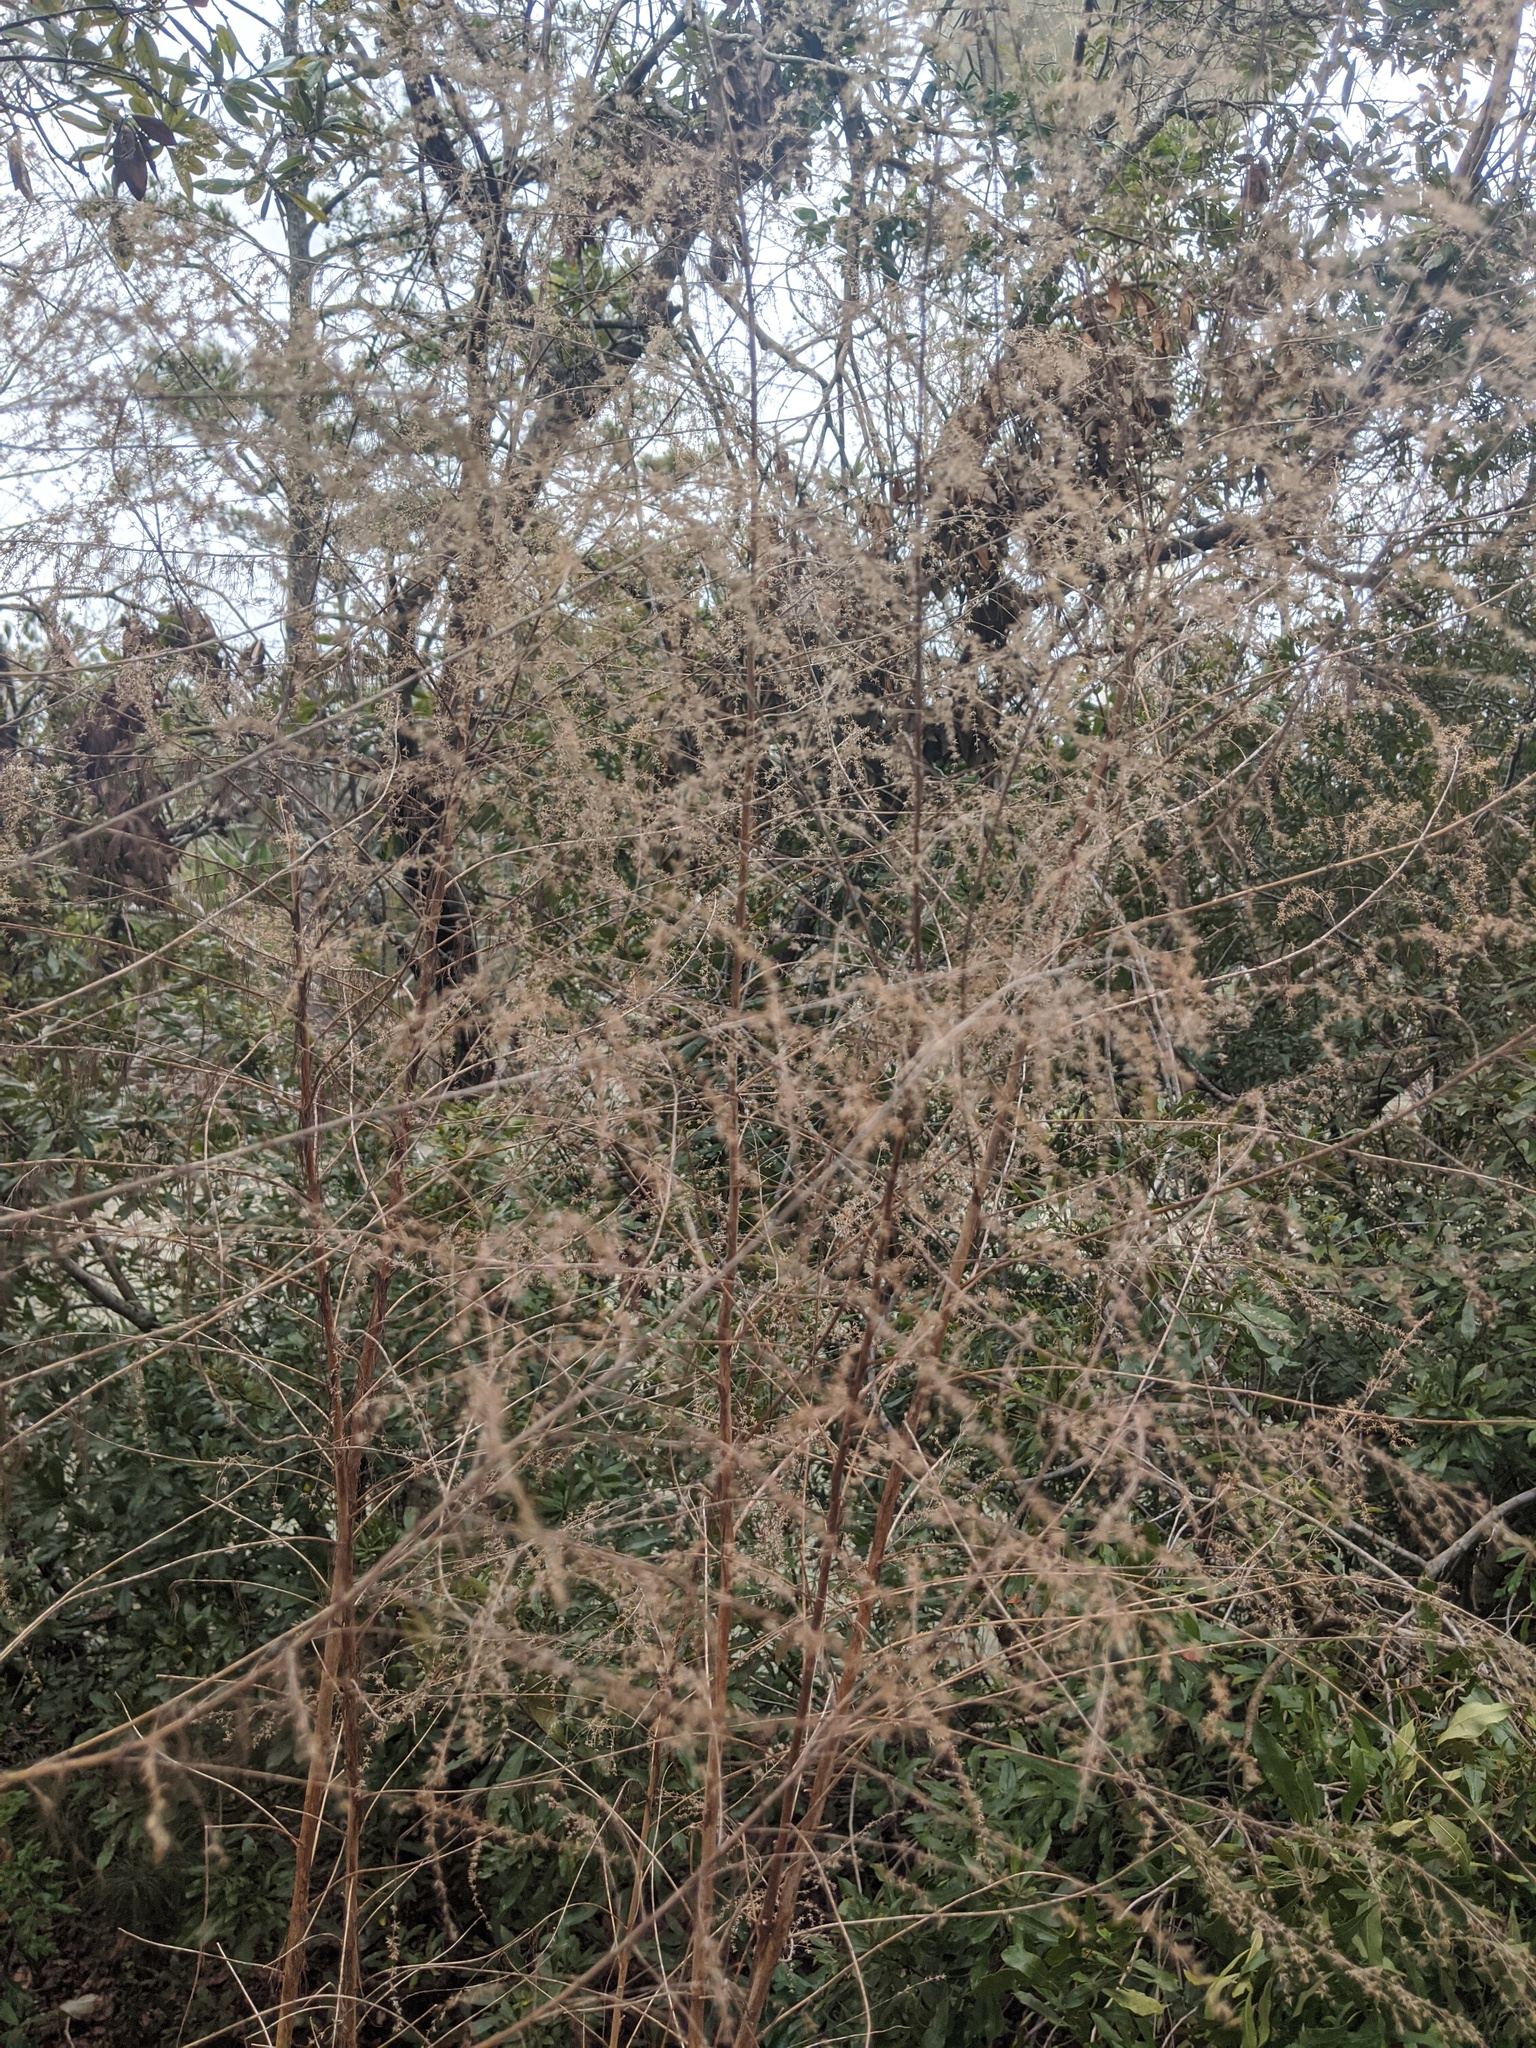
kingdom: Plantae
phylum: Tracheophyta
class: Magnoliopsida
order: Asterales
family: Asteraceae
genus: Eupatorium
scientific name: Eupatorium capillifolium
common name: Dog-fennel
